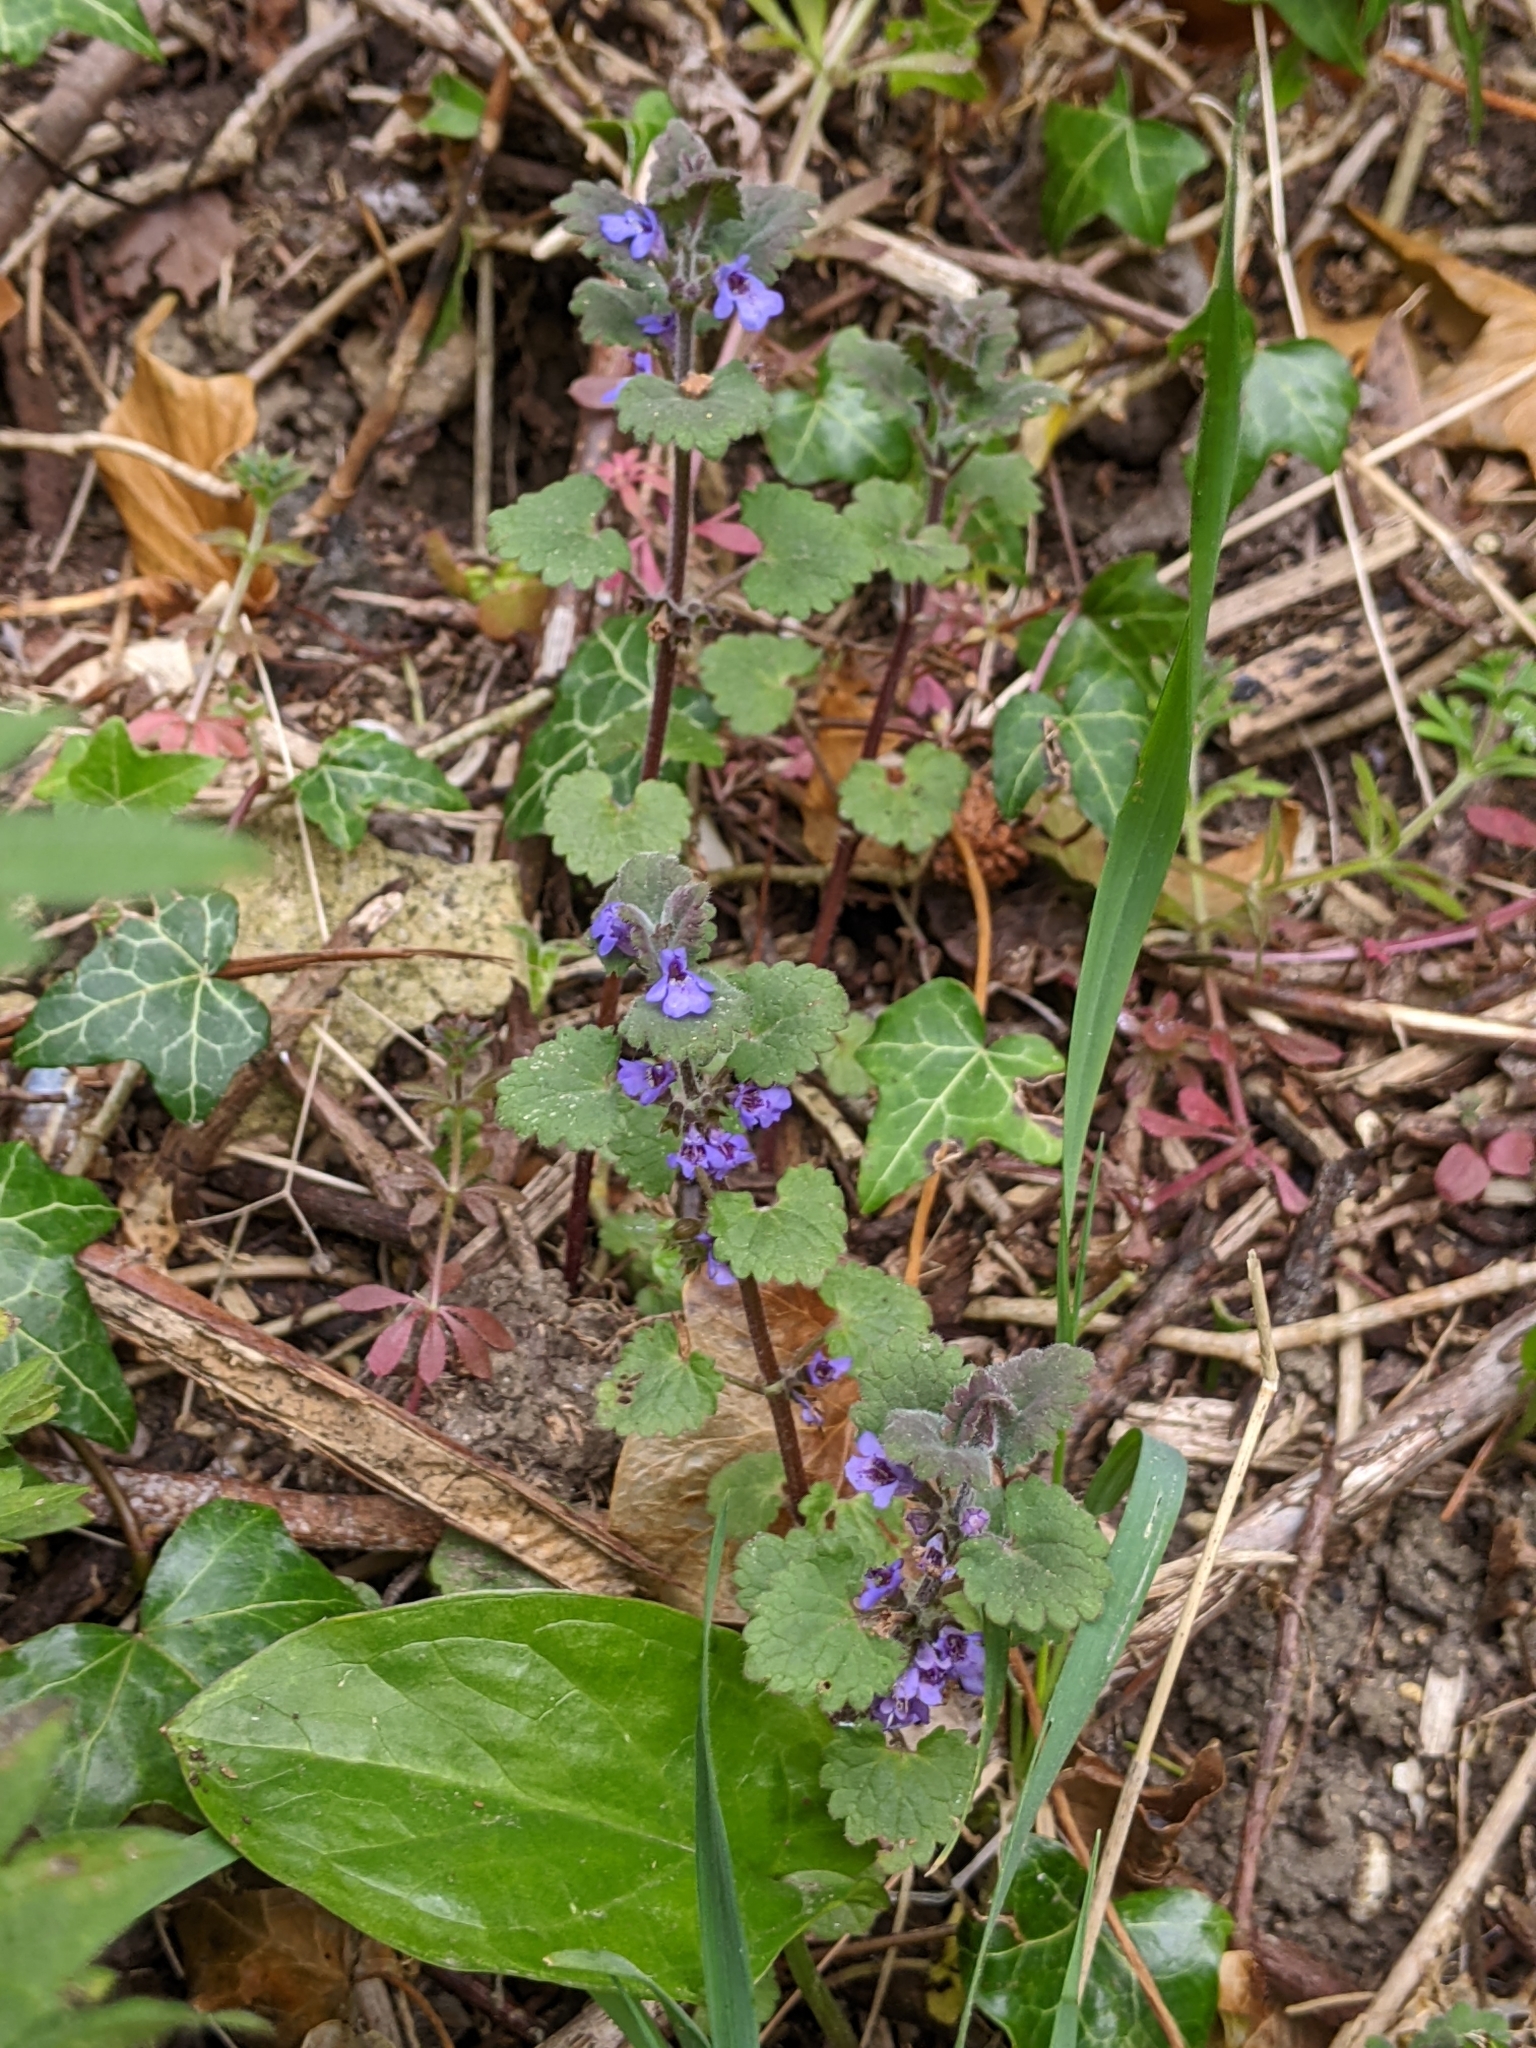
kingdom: Plantae
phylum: Tracheophyta
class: Magnoliopsida
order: Lamiales
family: Lamiaceae
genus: Glechoma
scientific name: Glechoma hederacea
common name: Ground ivy
